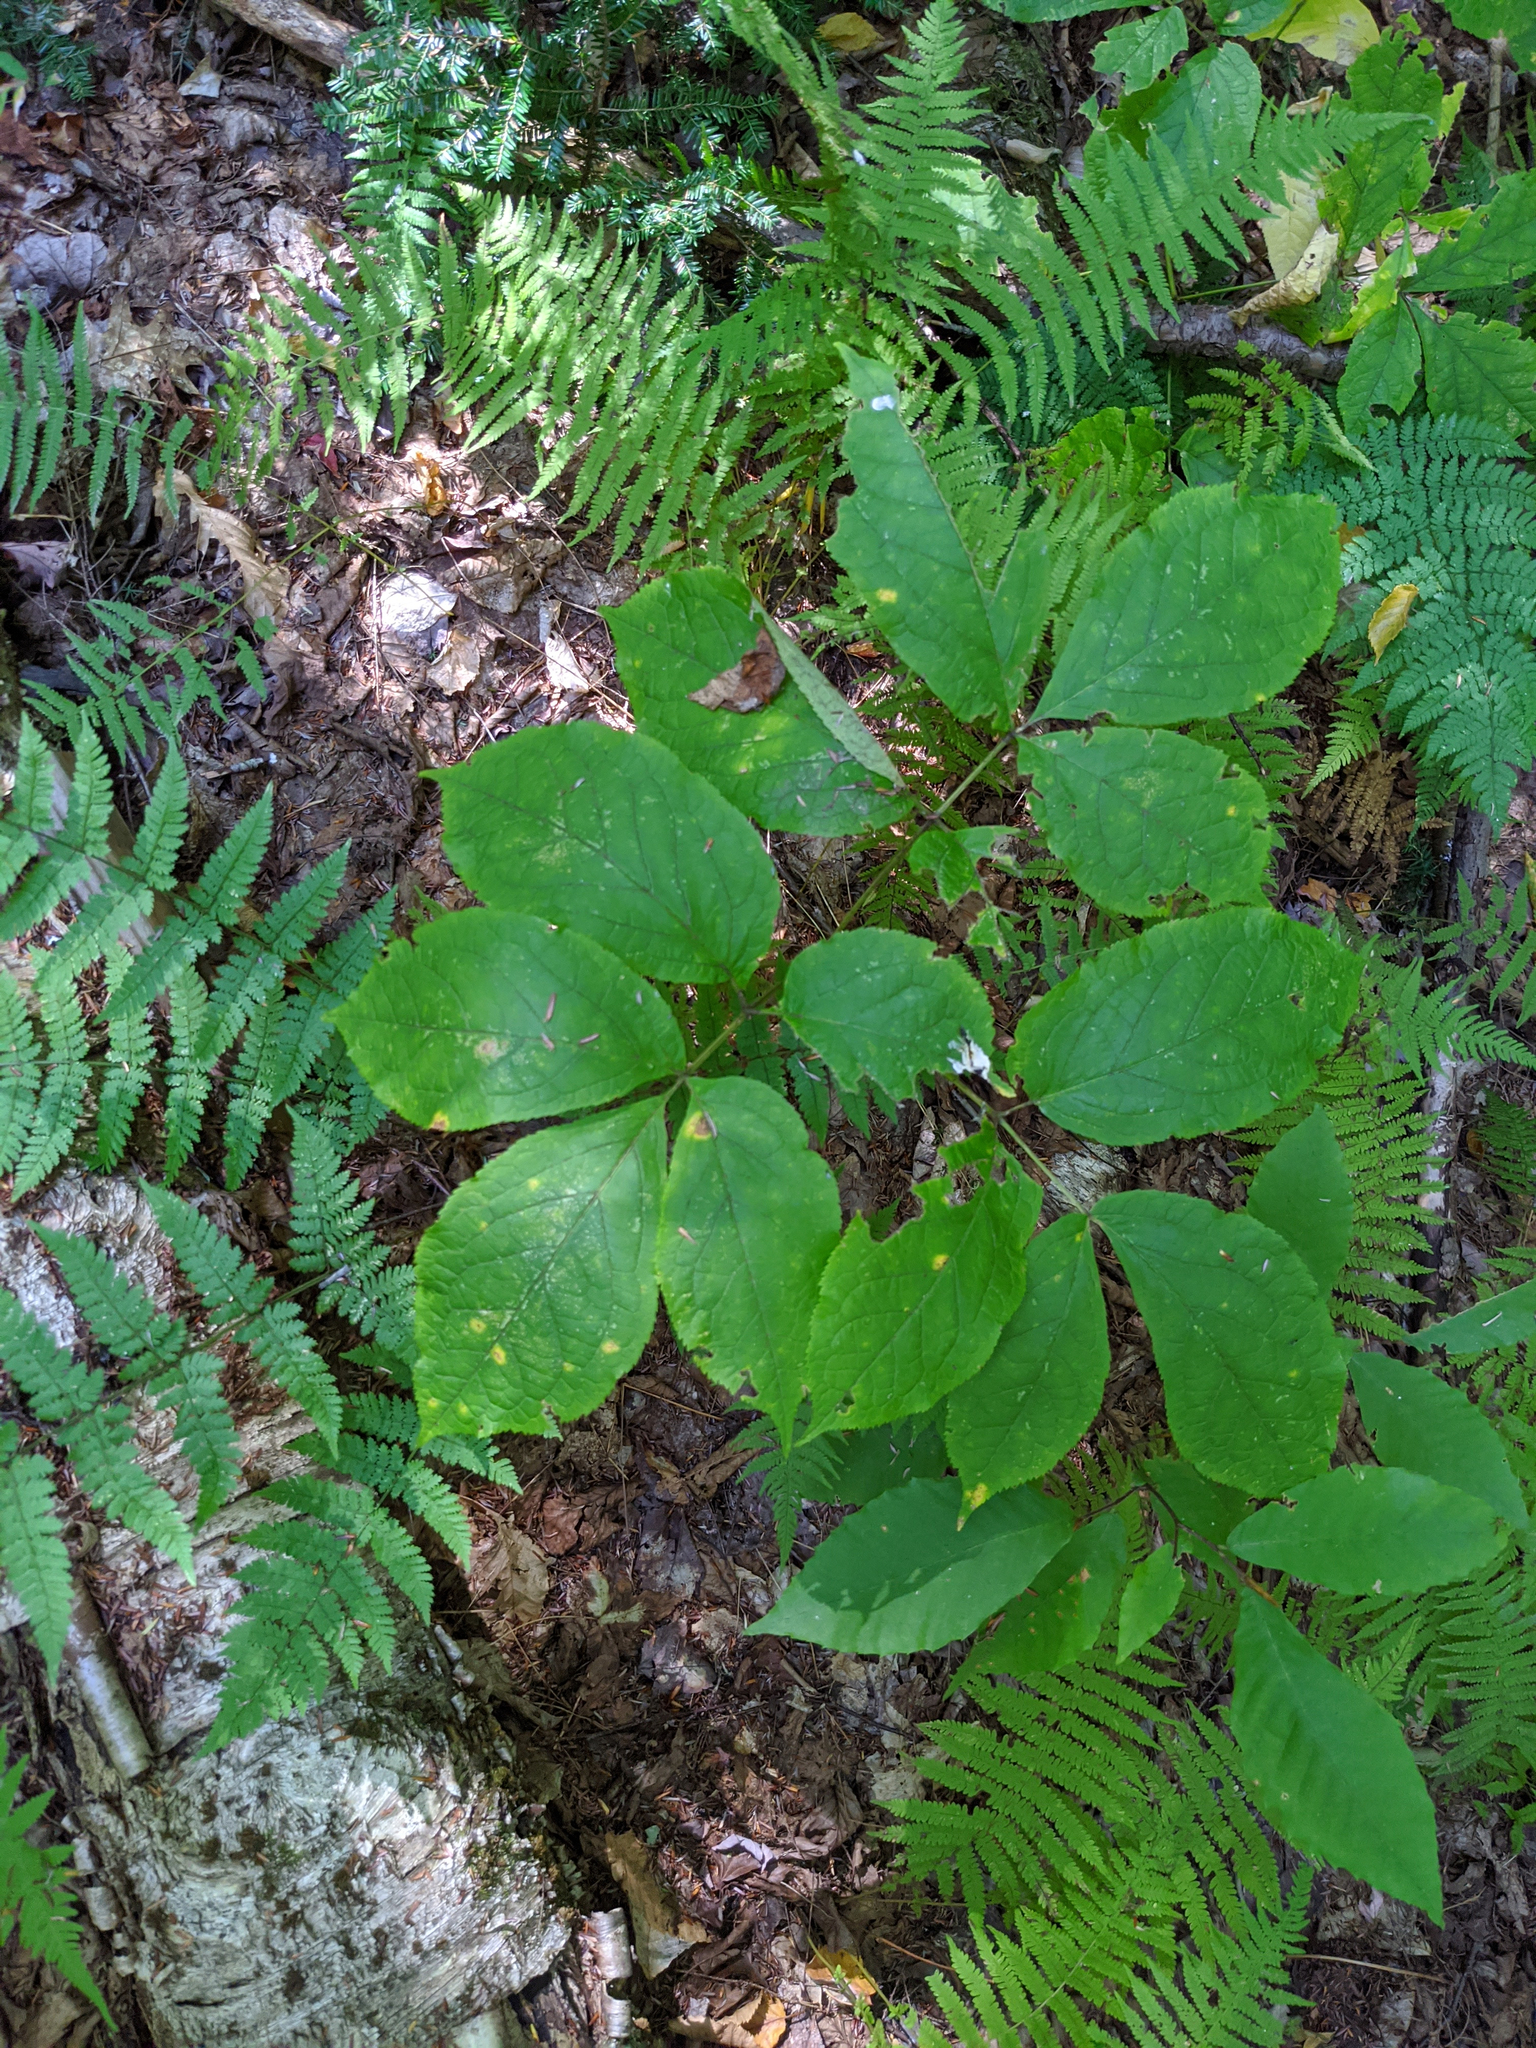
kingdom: Plantae
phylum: Tracheophyta
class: Magnoliopsida
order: Apiales
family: Araliaceae
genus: Aralia
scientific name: Aralia nudicaulis
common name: Wild sarsaparilla
